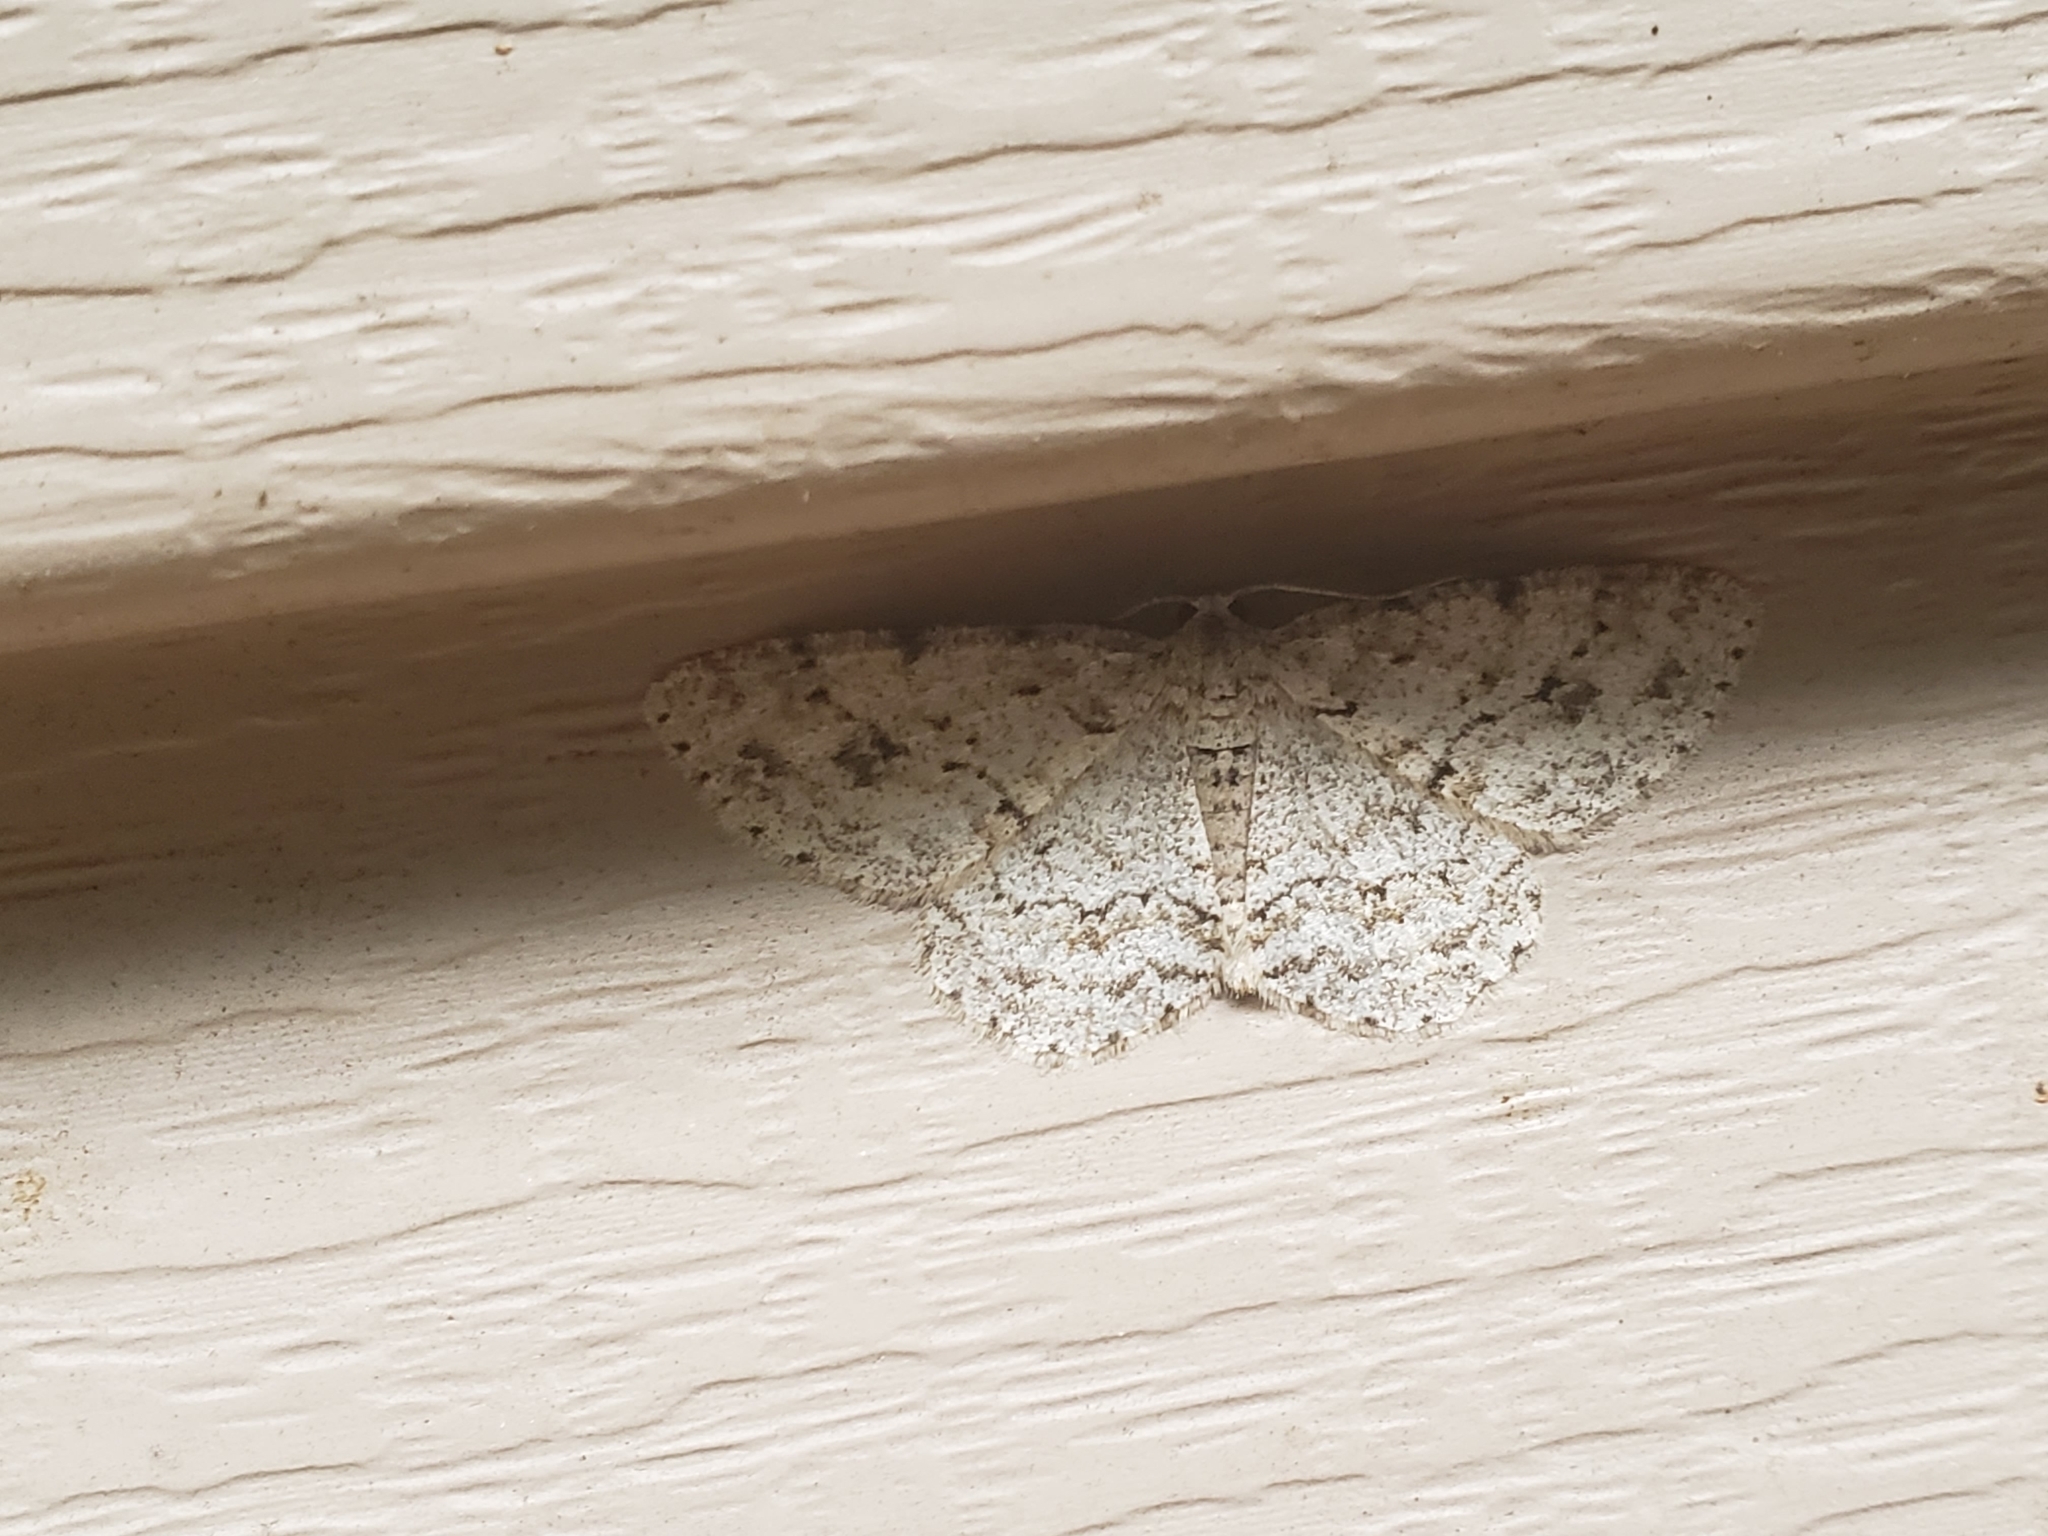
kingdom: Animalia
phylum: Arthropoda
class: Insecta
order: Lepidoptera
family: Geometridae
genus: Ectropis
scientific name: Ectropis crepuscularia
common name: Engrailed
